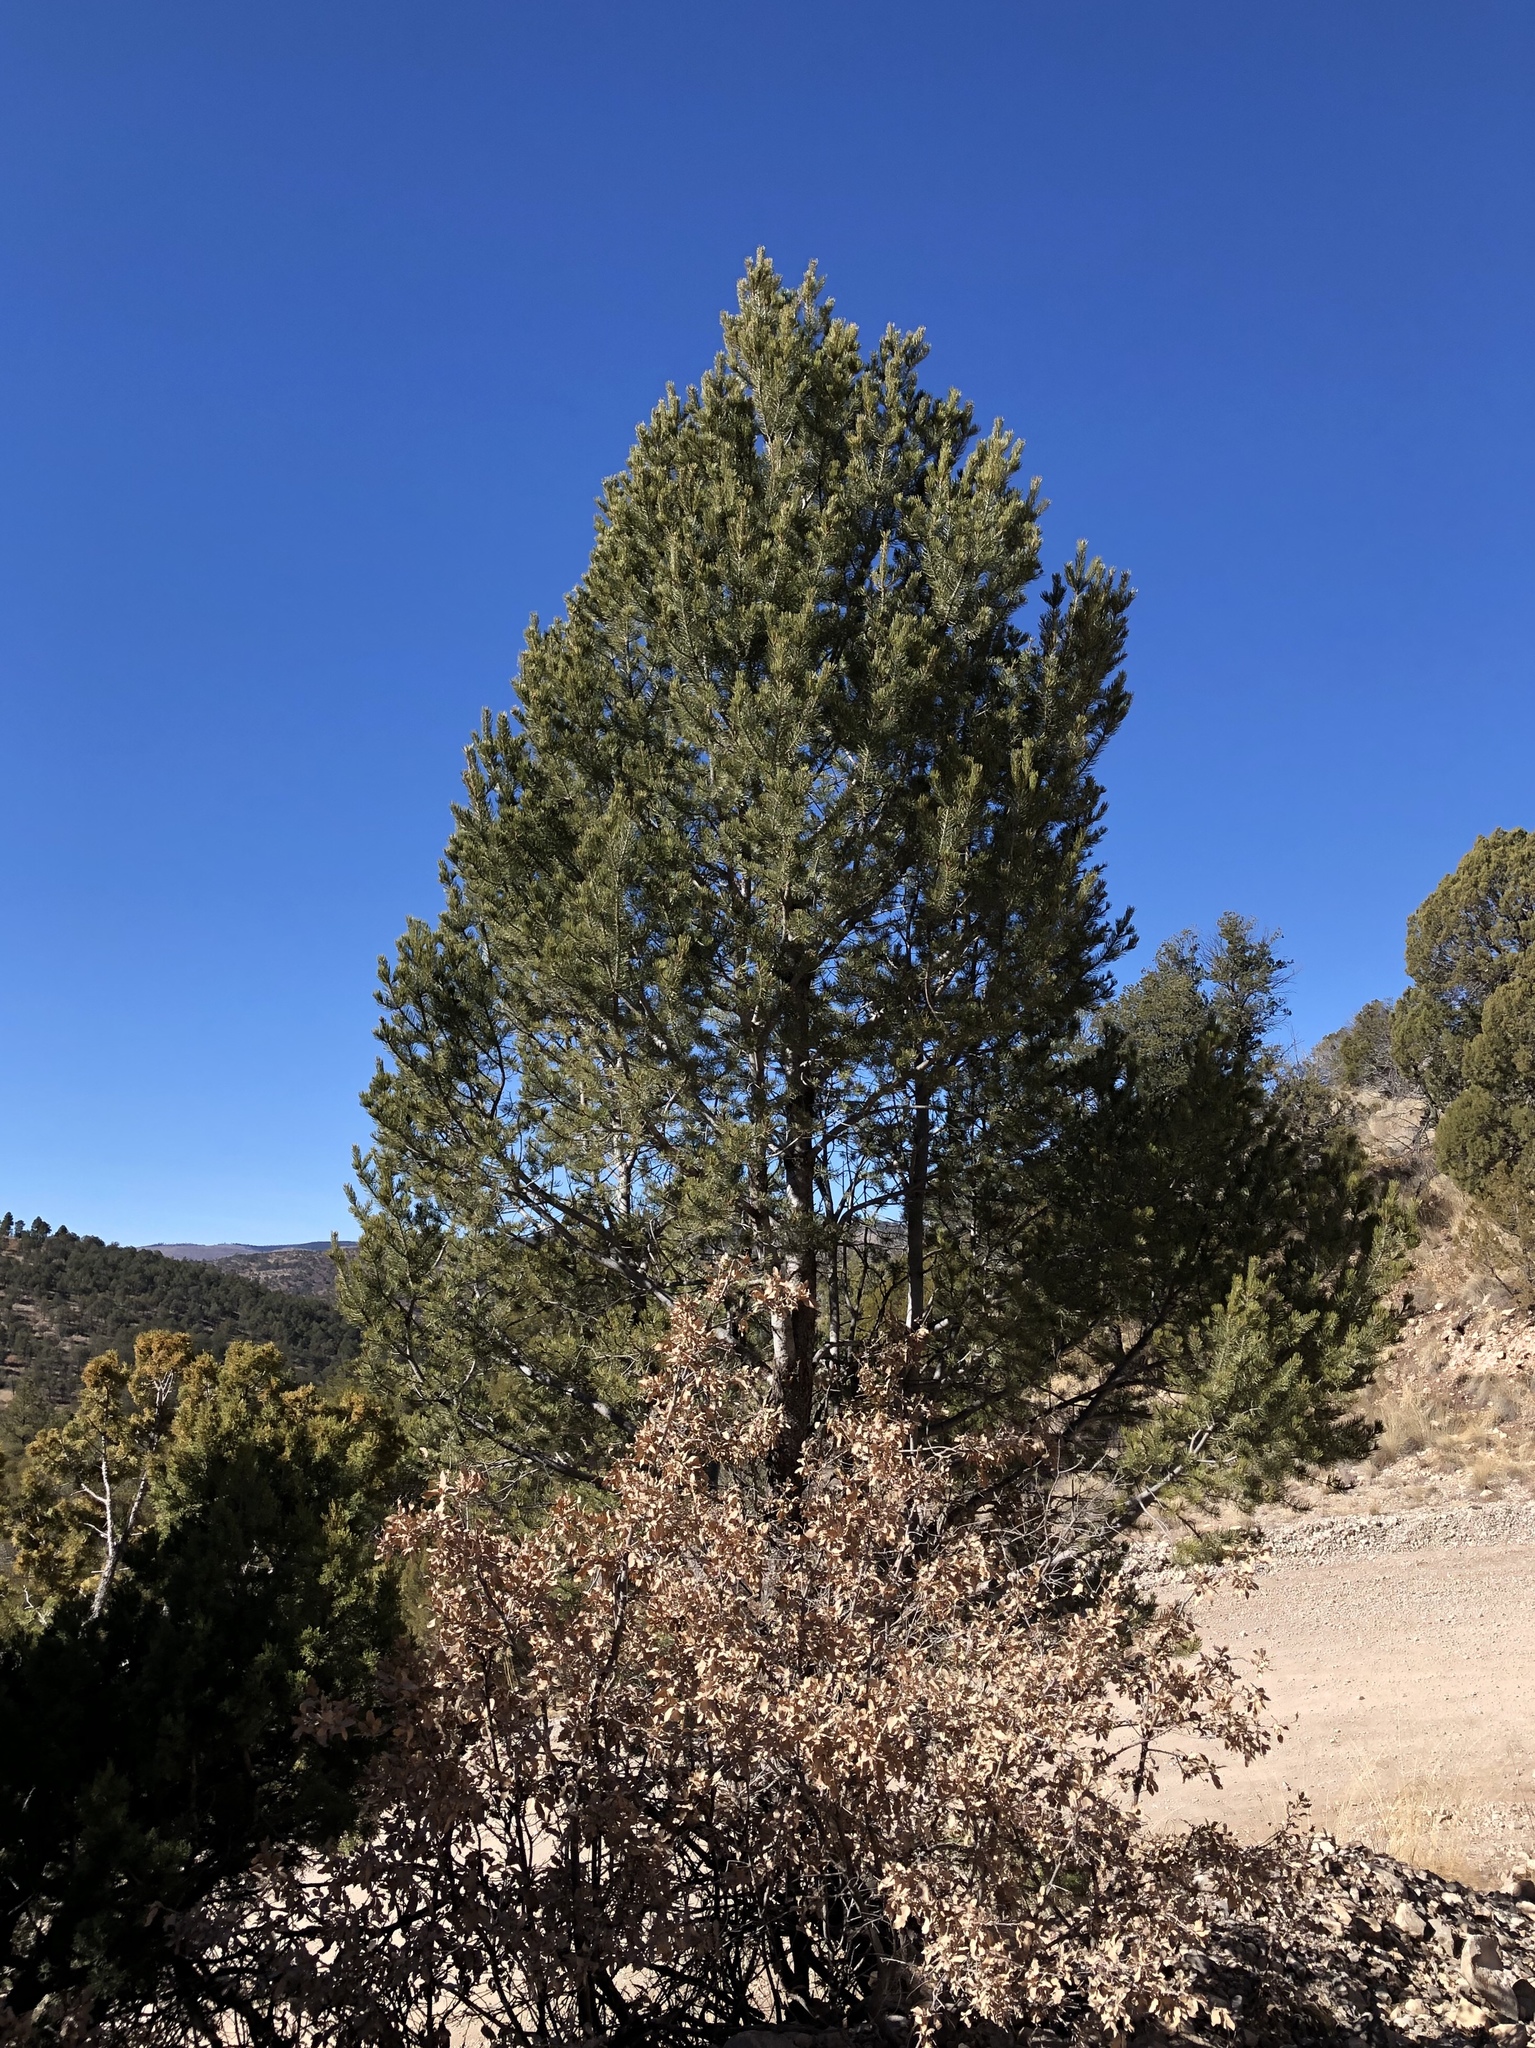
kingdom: Plantae
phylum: Tracheophyta
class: Pinopsida
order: Pinales
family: Pinaceae
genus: Pinus
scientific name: Pinus edulis
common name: Colorado pinyon
